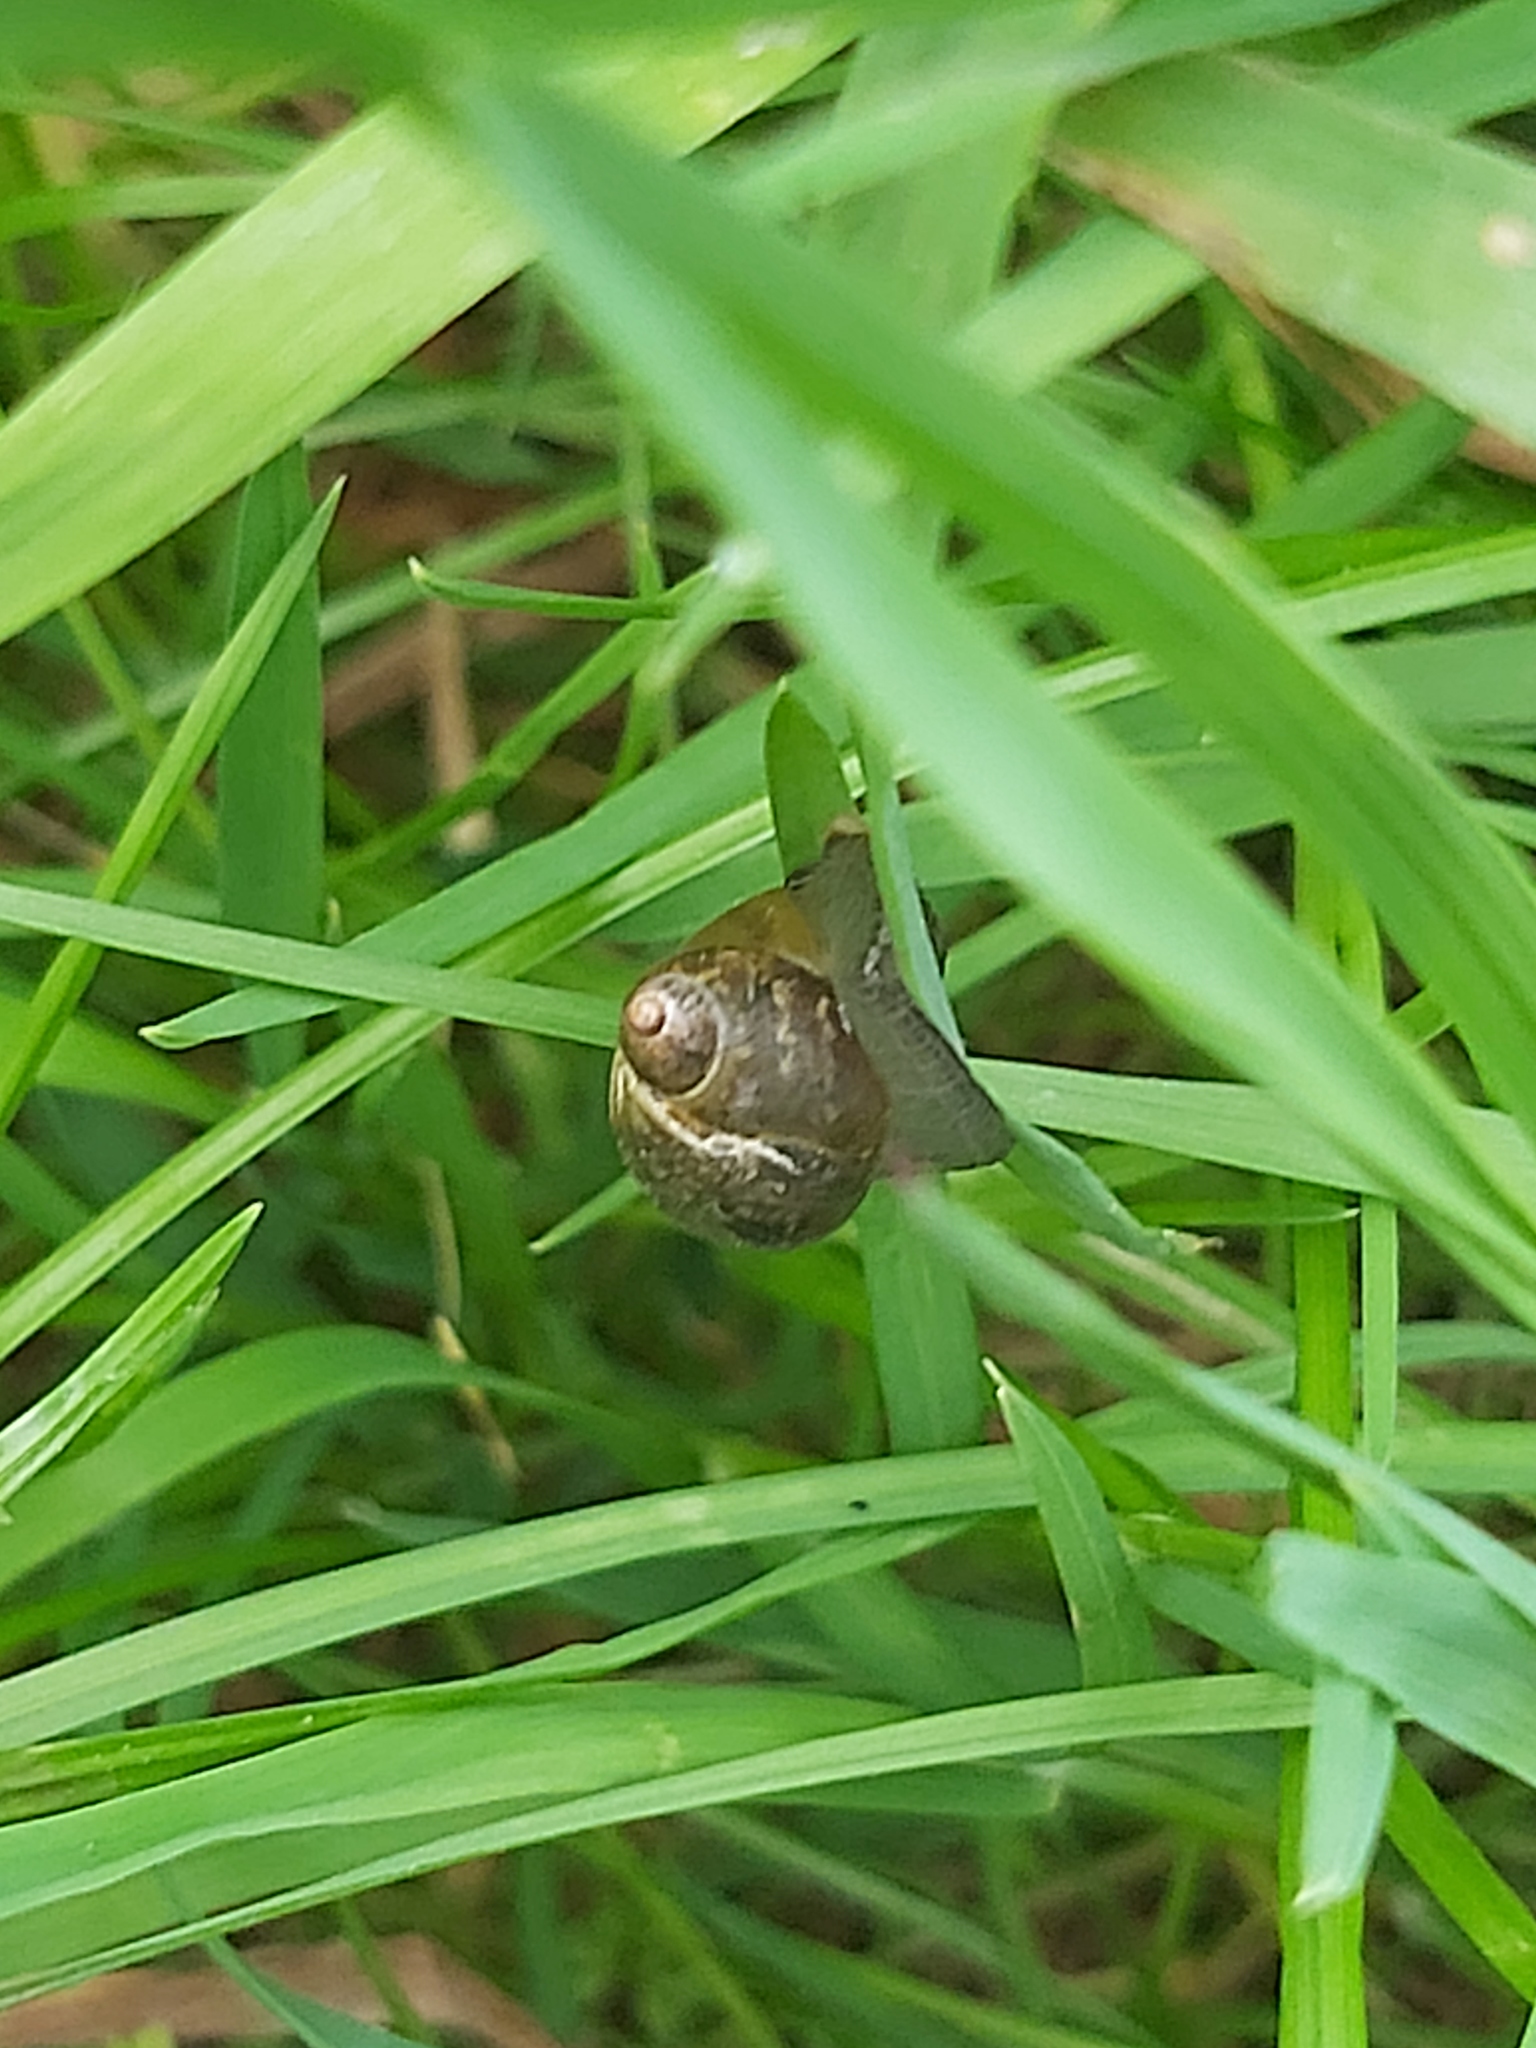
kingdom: Animalia
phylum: Mollusca
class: Gastropoda
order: Stylommatophora
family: Succineidae
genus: Succinea
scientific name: Succinea putris
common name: European ambersnail
